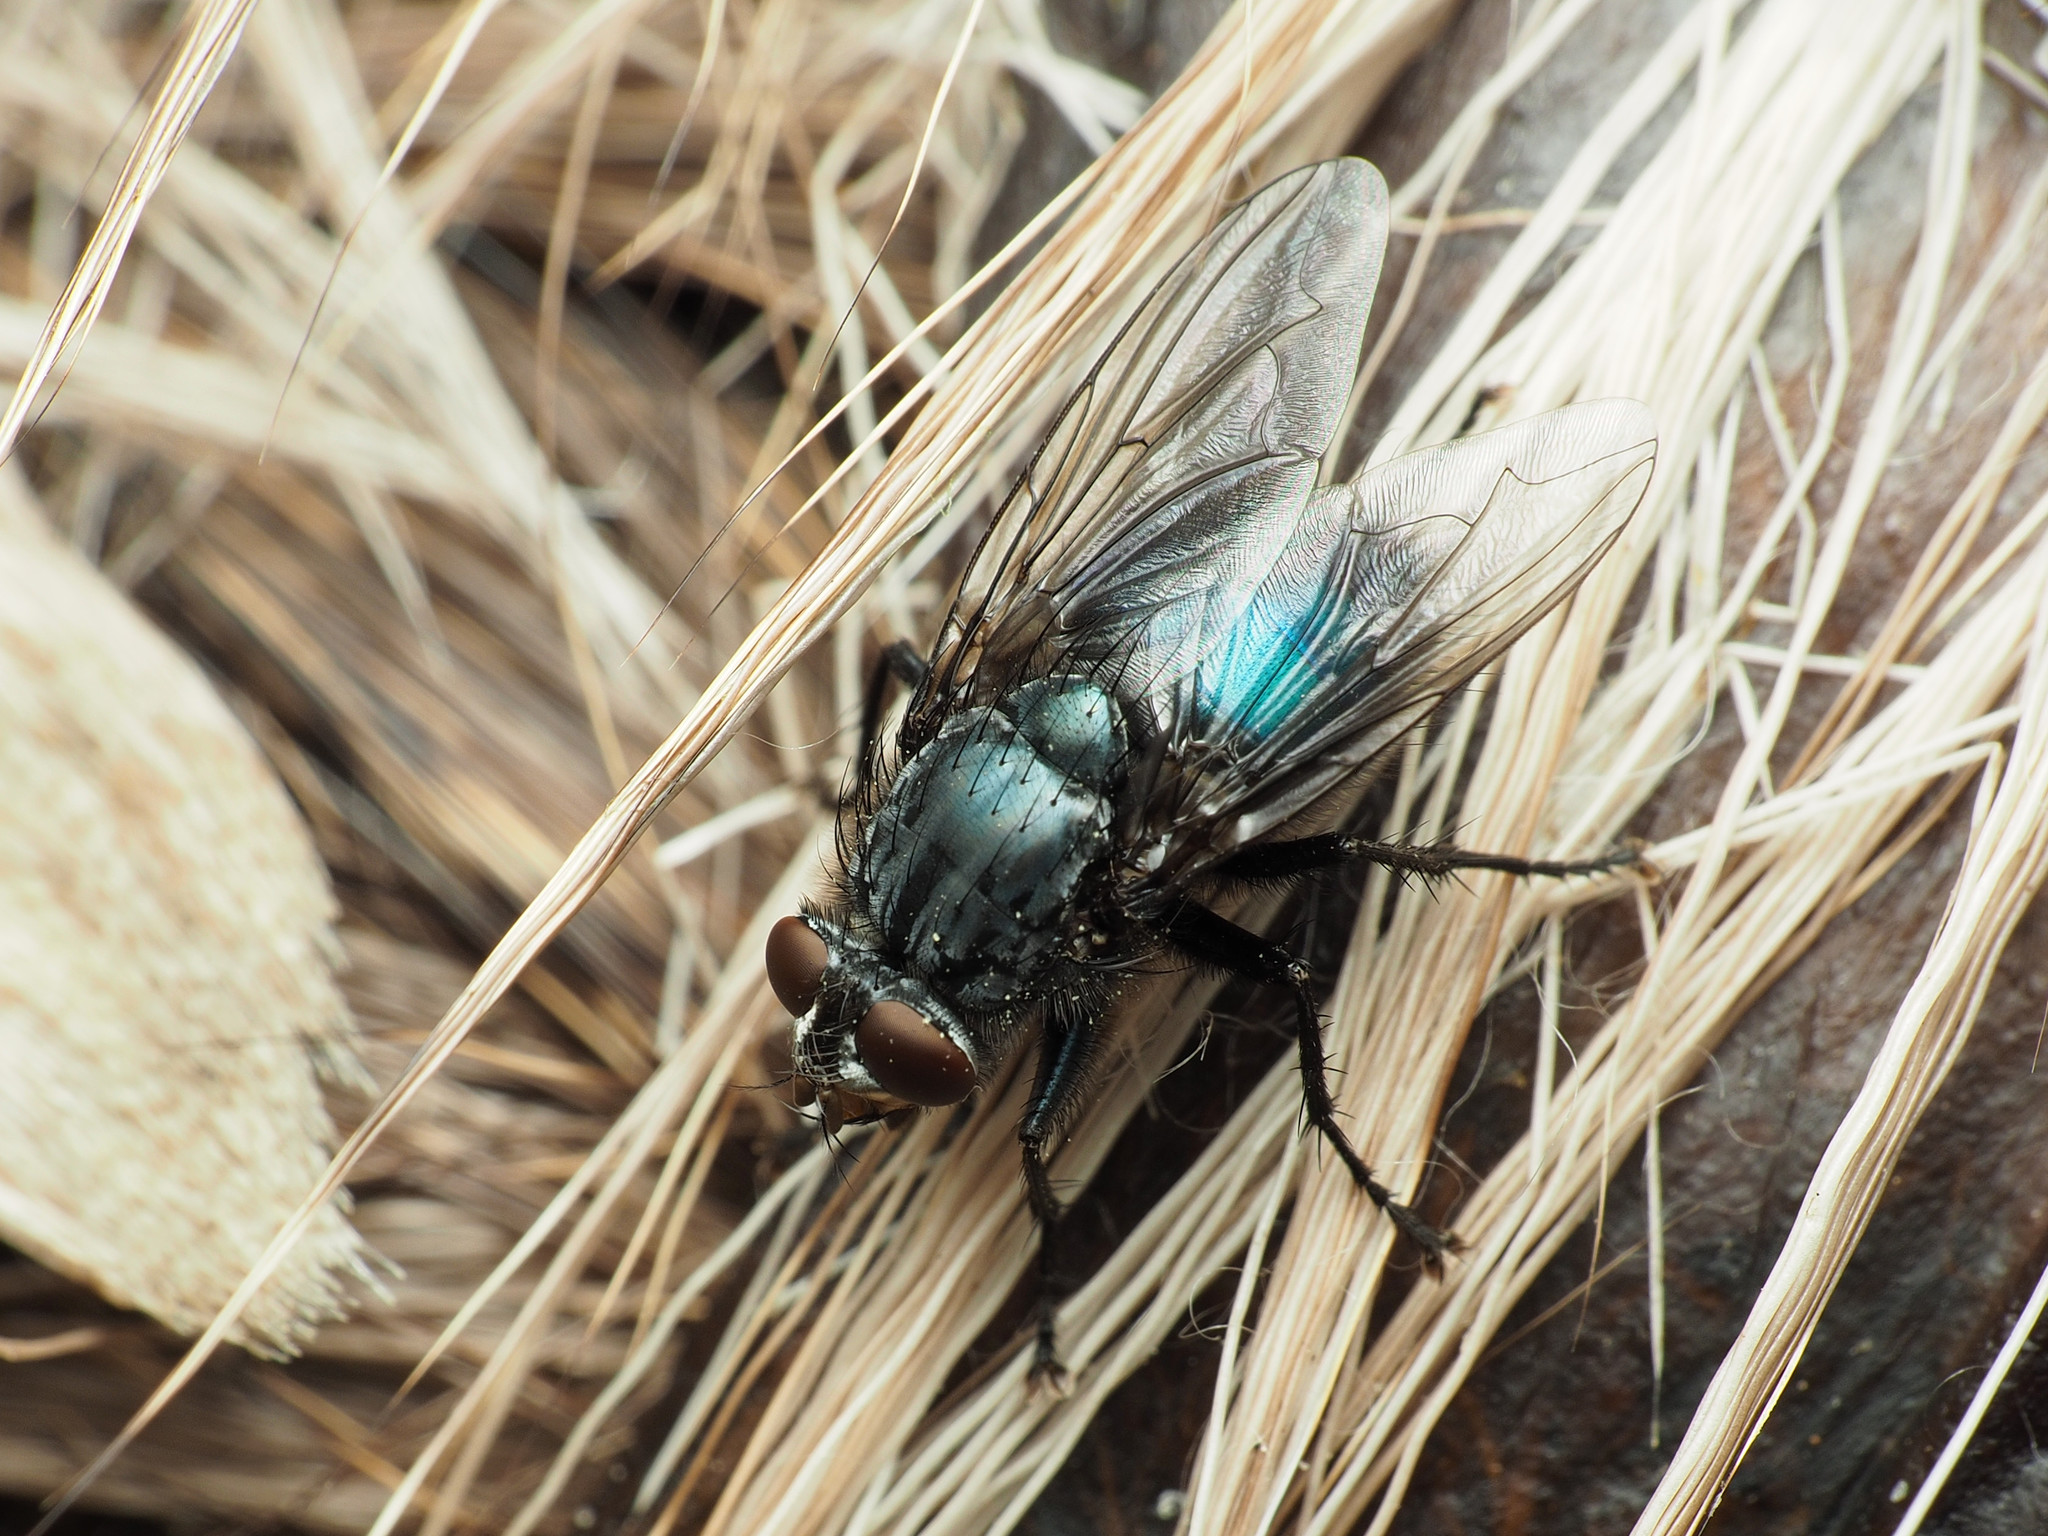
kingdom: Animalia
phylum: Arthropoda
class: Insecta
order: Diptera
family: Calliphoridae
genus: Cynomya
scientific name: Cynomya cadaverina
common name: Shiny blue bottle fly
